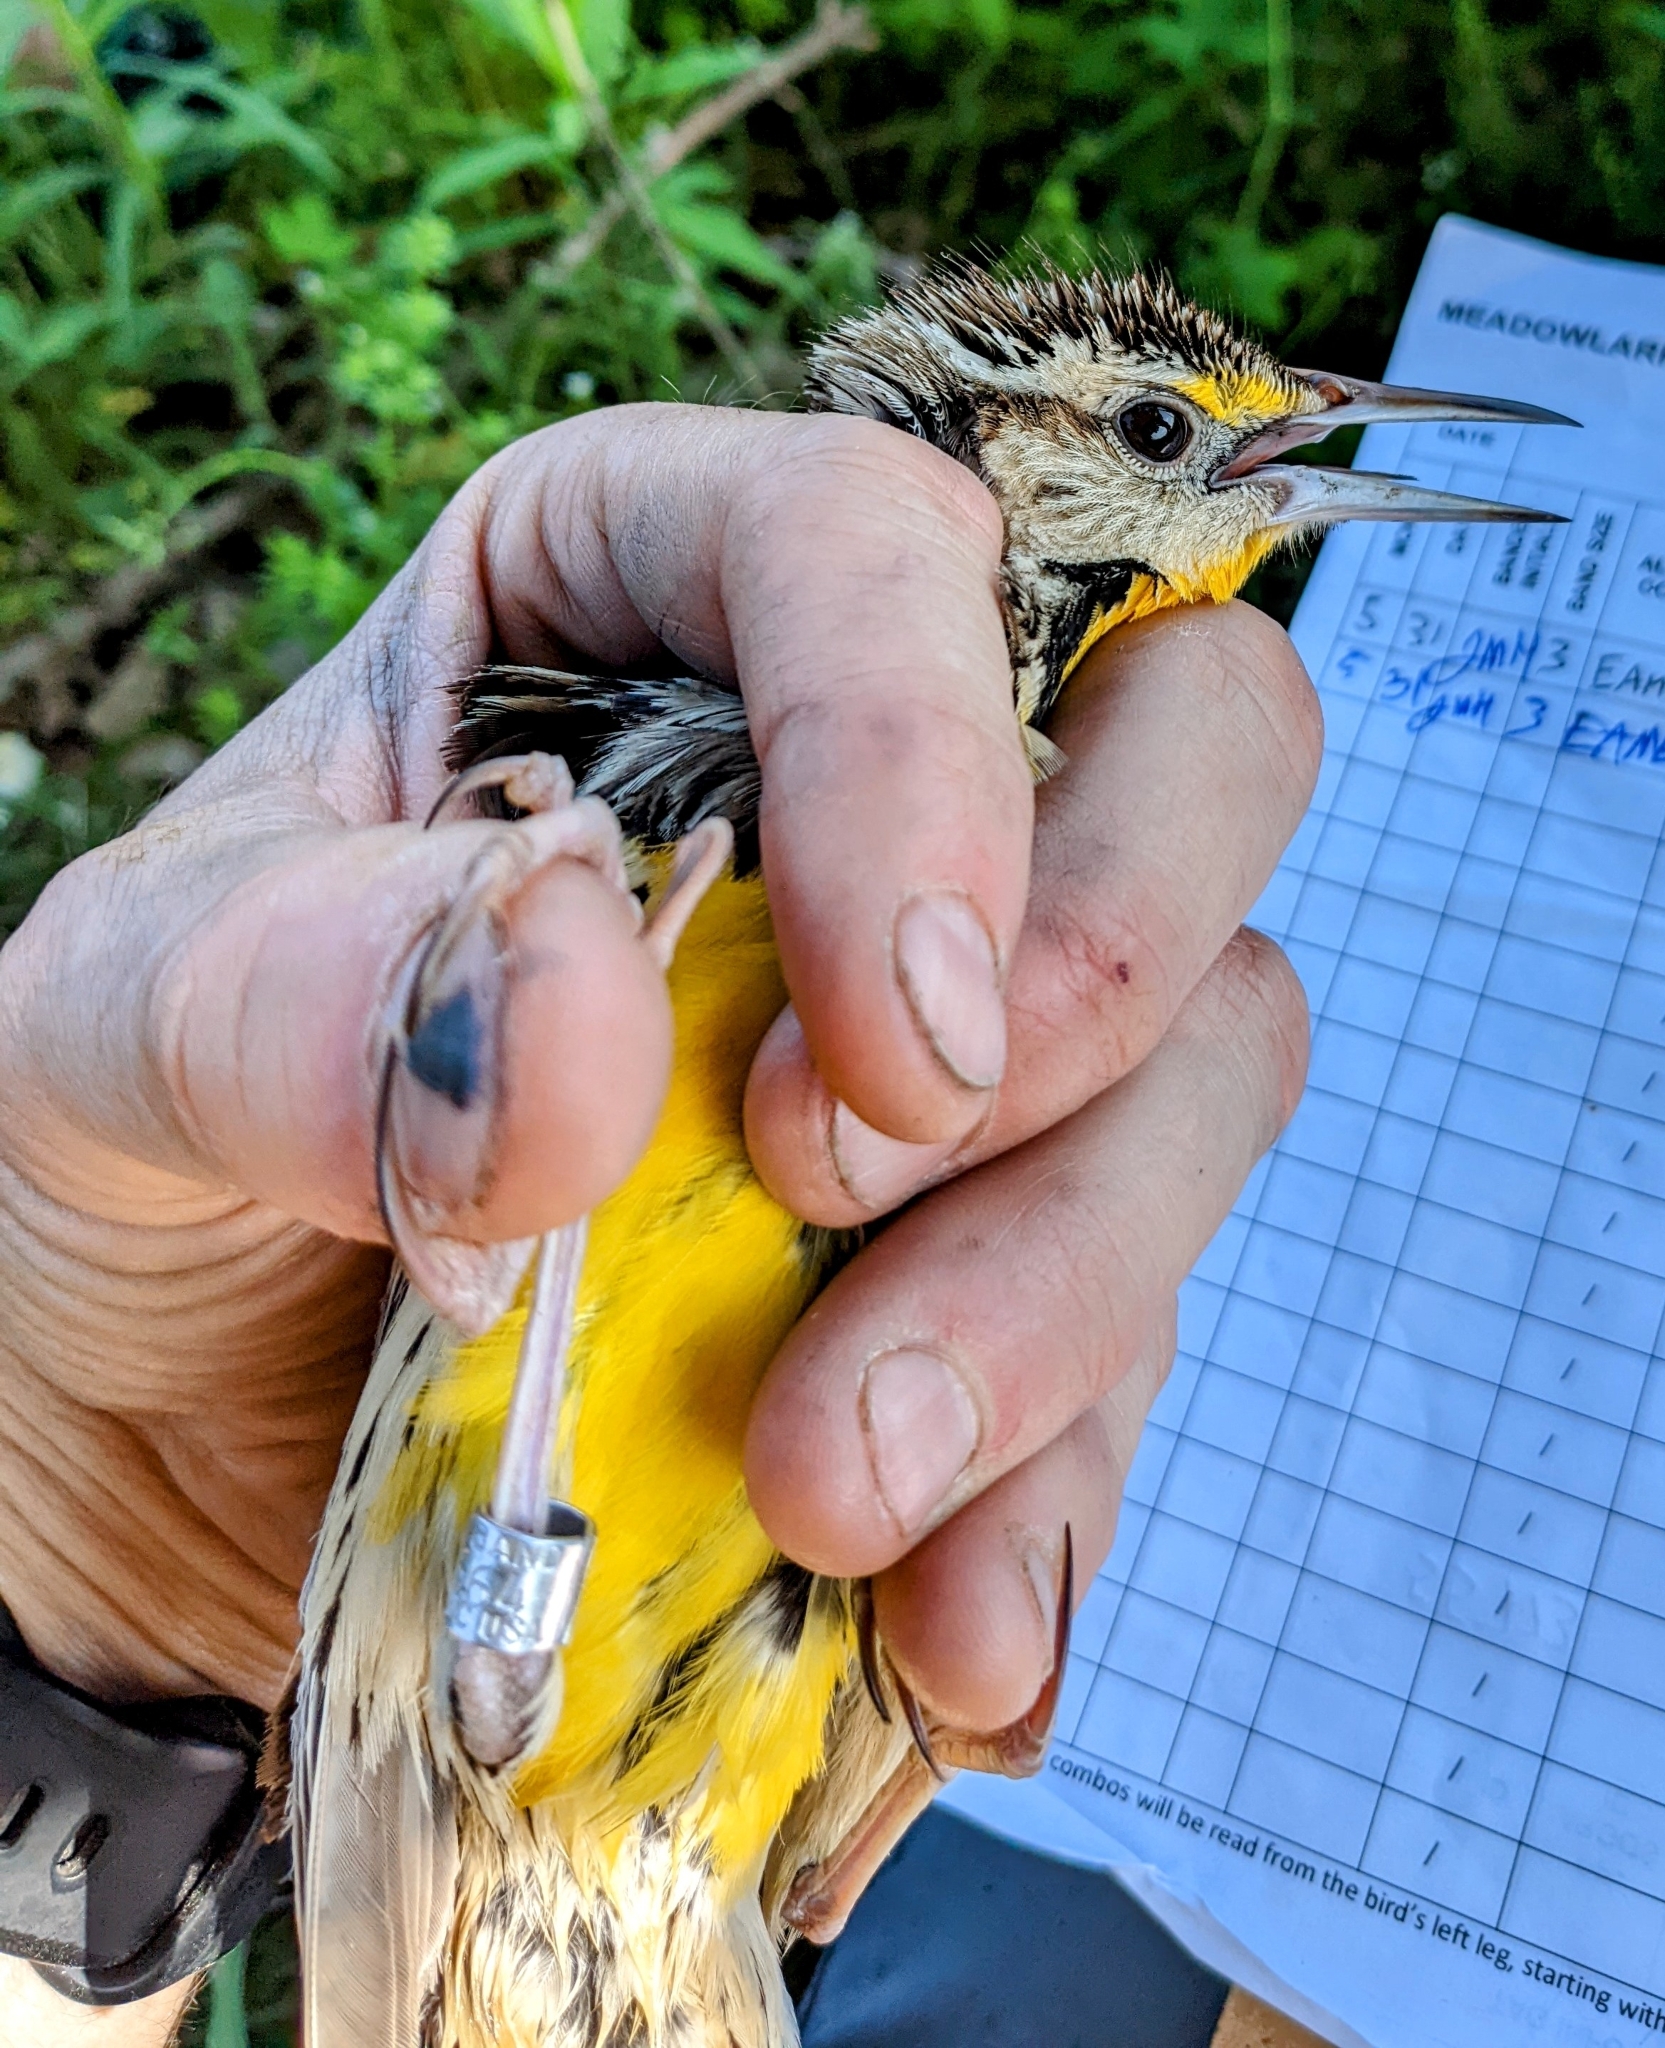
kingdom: Animalia
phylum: Chordata
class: Aves
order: Passeriformes
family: Icteridae
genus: Sturnella
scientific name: Sturnella magna
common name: Eastern meadowlark
